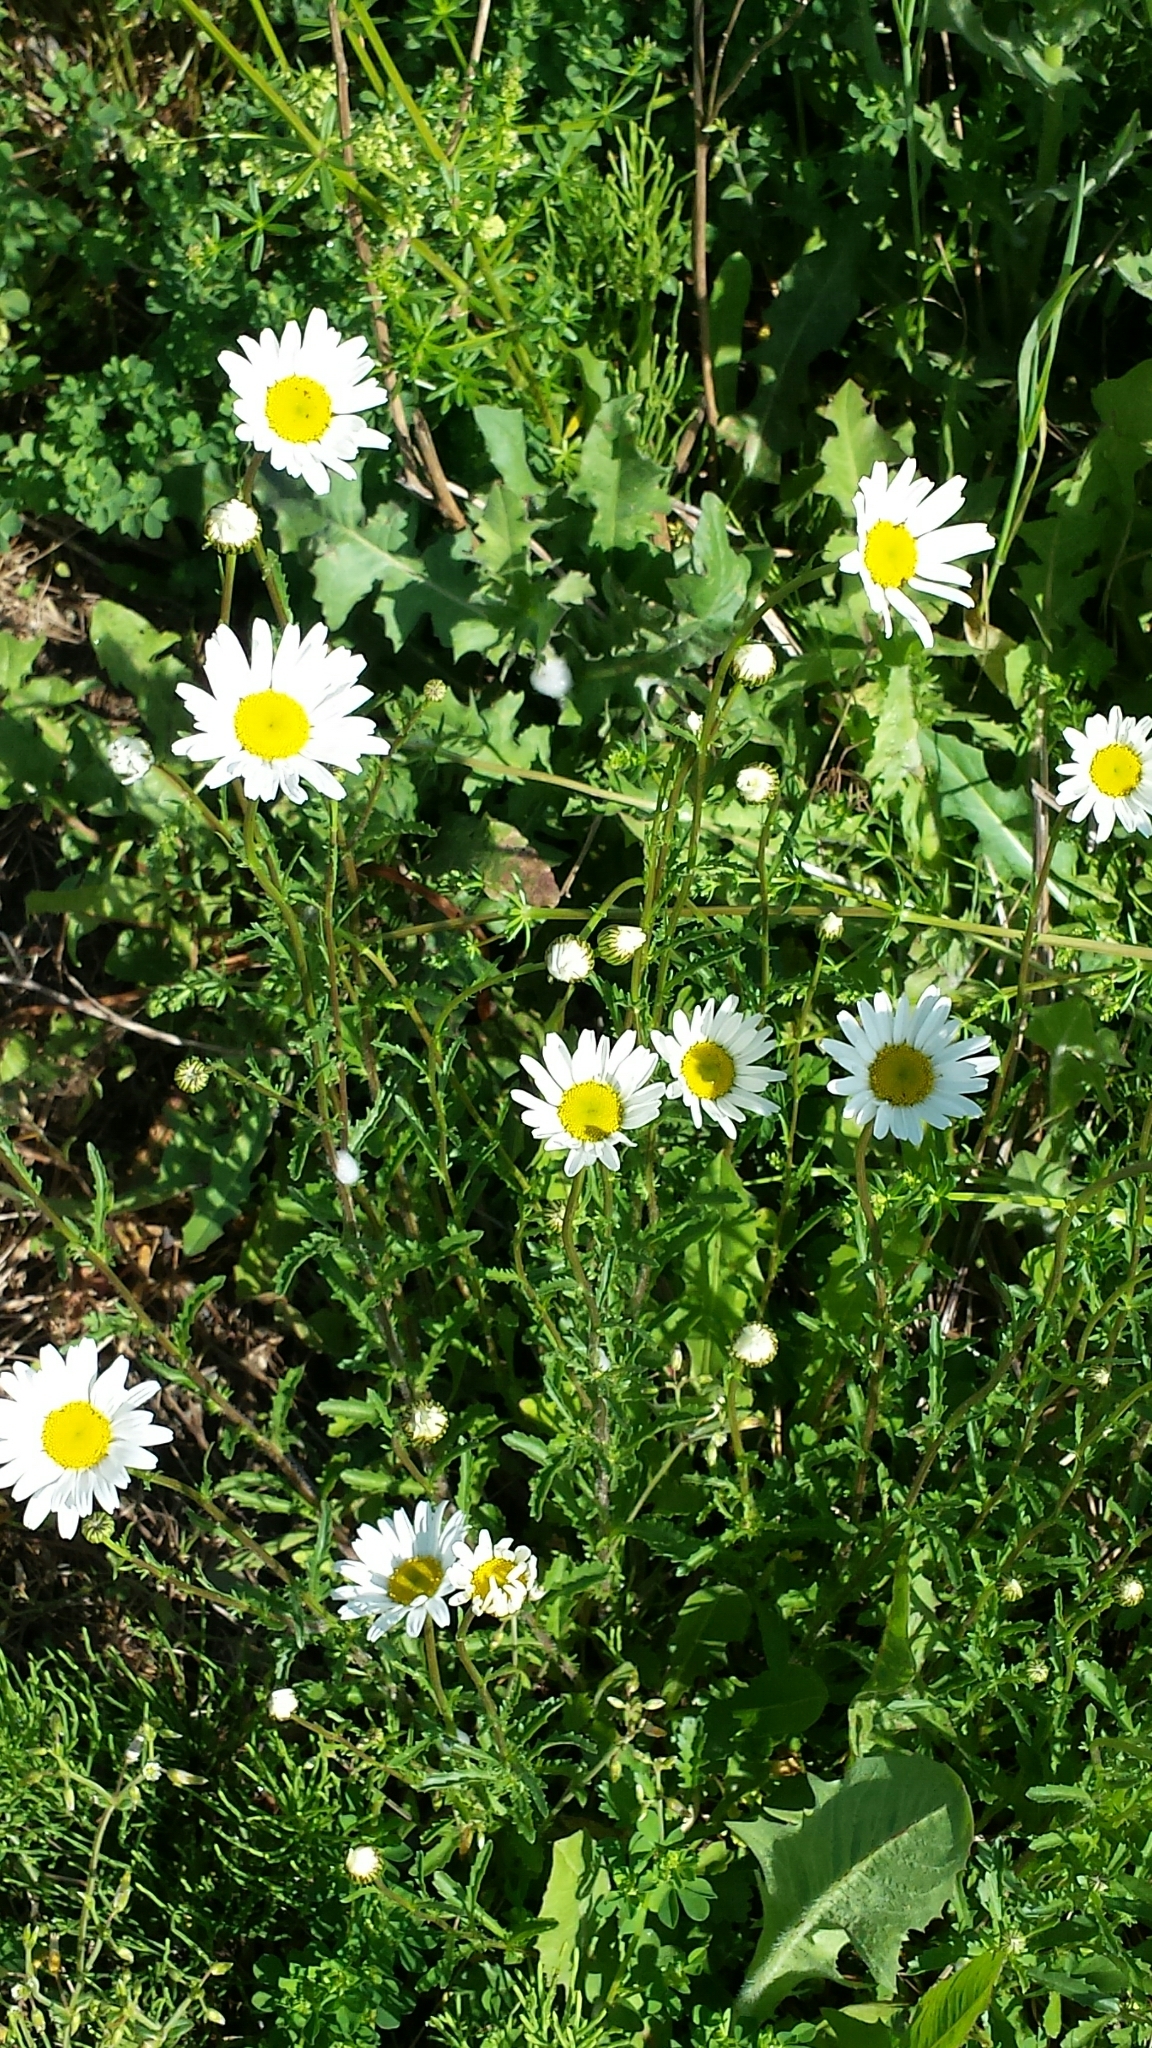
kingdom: Plantae
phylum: Tracheophyta
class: Magnoliopsida
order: Asterales
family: Asteraceae
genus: Leucanthemum
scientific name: Leucanthemum vulgare
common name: Oxeye daisy
